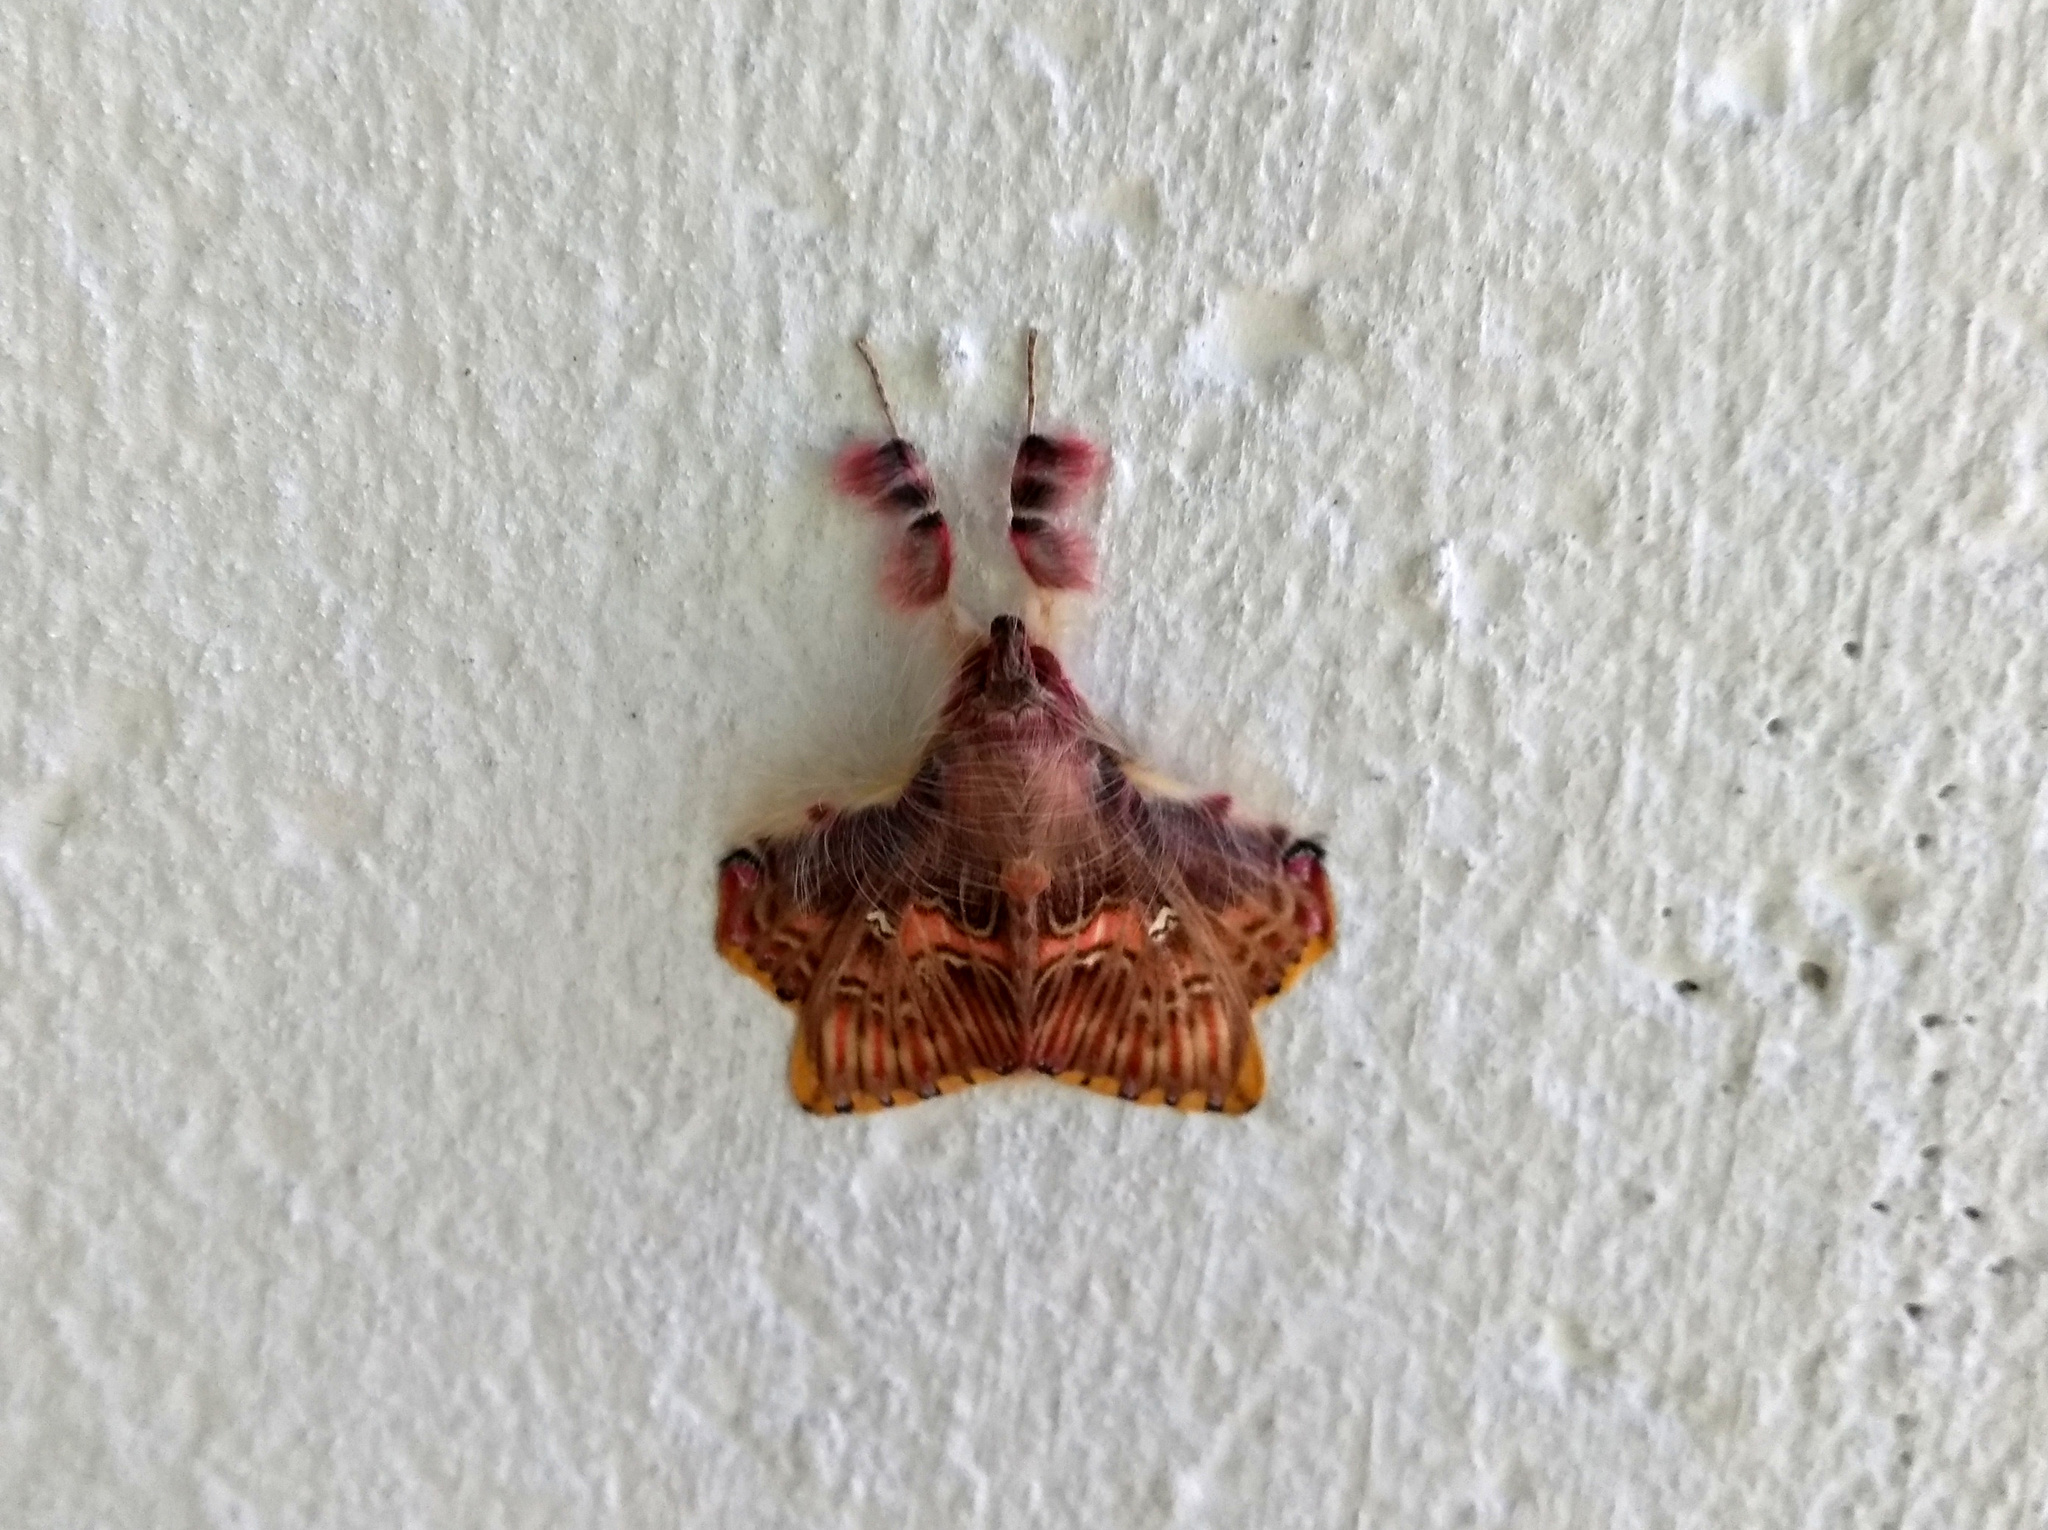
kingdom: Animalia
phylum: Arthropoda
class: Insecta
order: Lepidoptera
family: Erebidae
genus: Sosxetra
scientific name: Sosxetra grata
